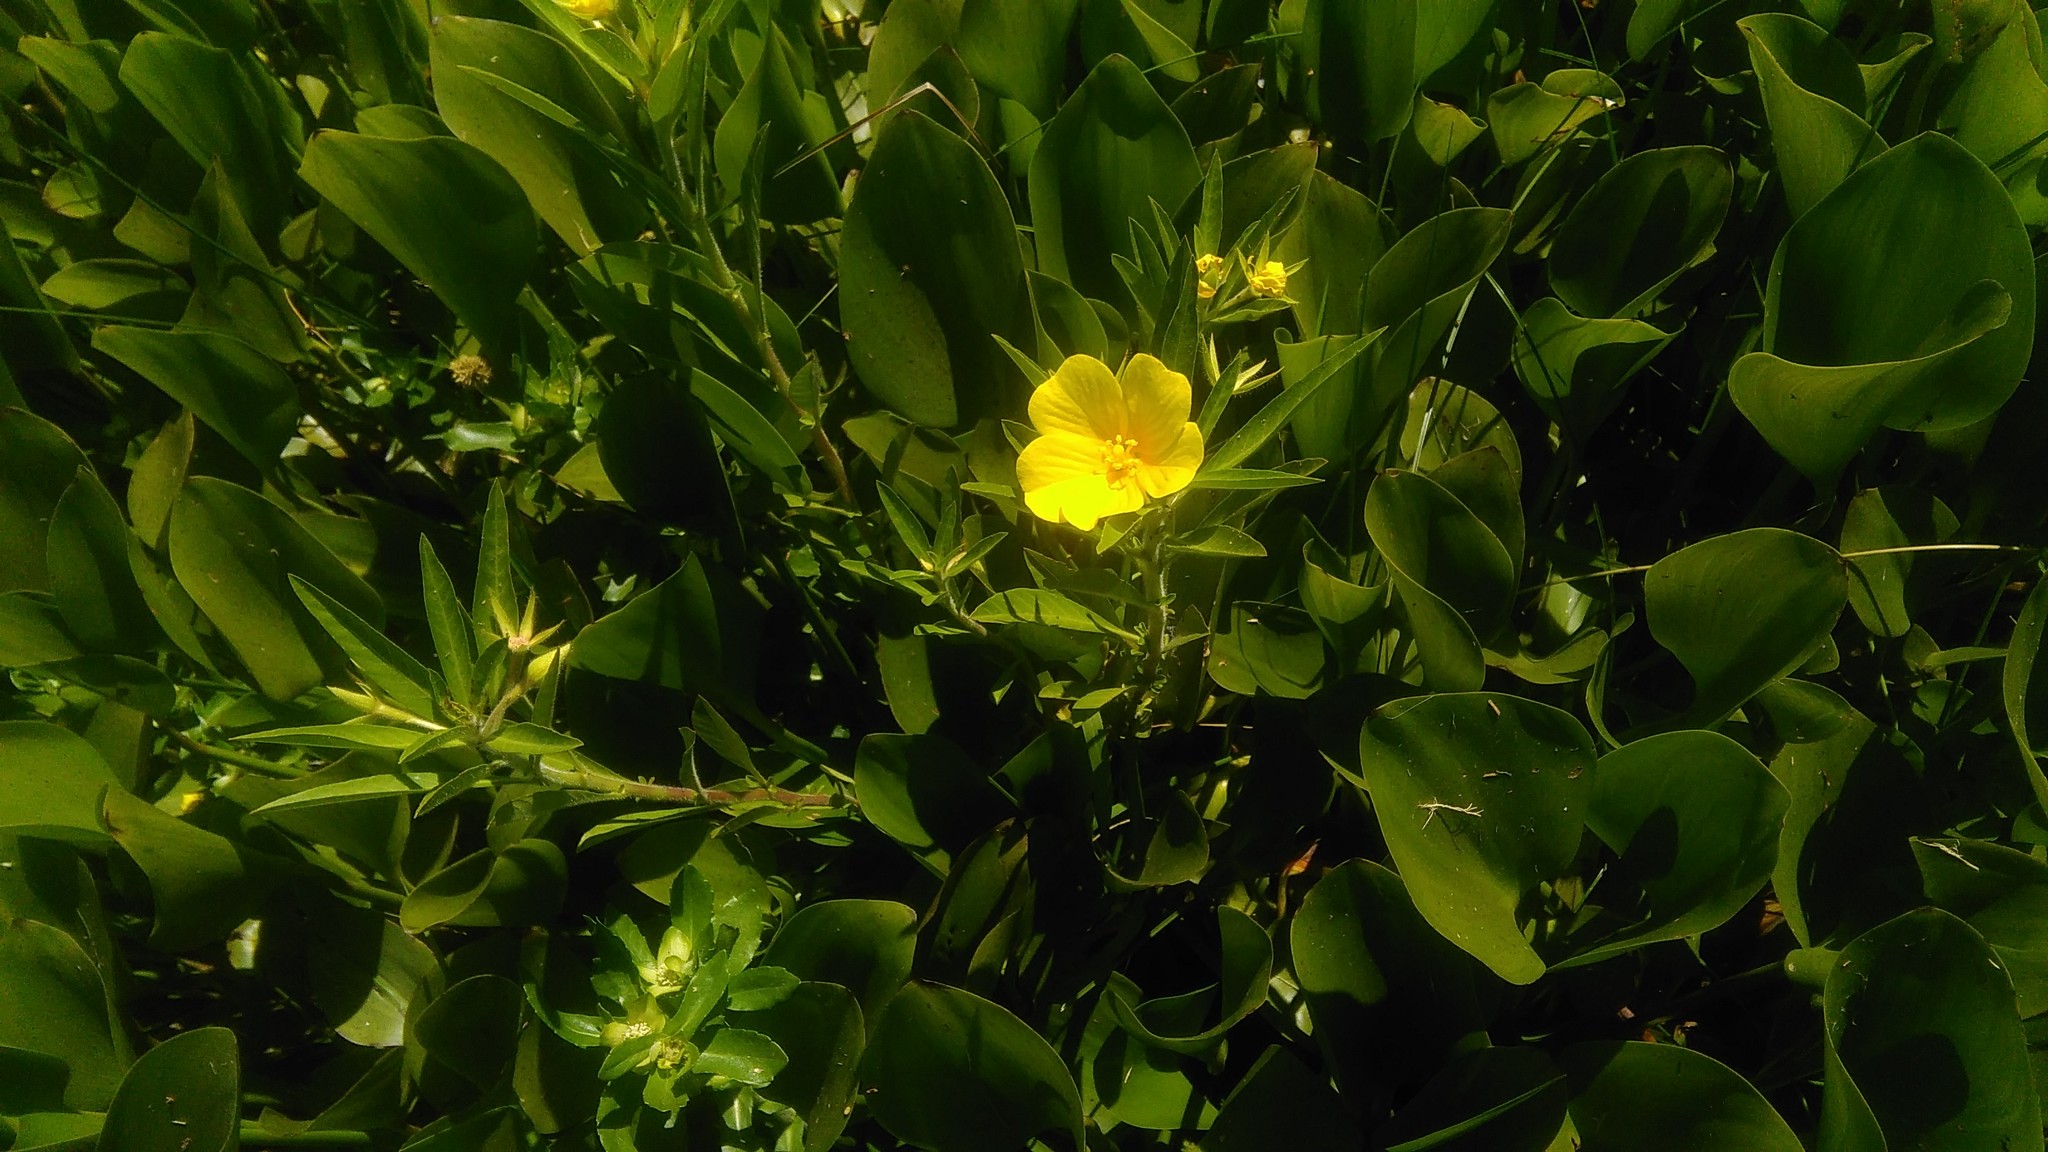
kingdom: Plantae
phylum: Tracheophyta
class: Magnoliopsida
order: Myrtales
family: Onagraceae
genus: Ludwigia
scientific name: Ludwigia peploides
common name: Floating primrose-willow
